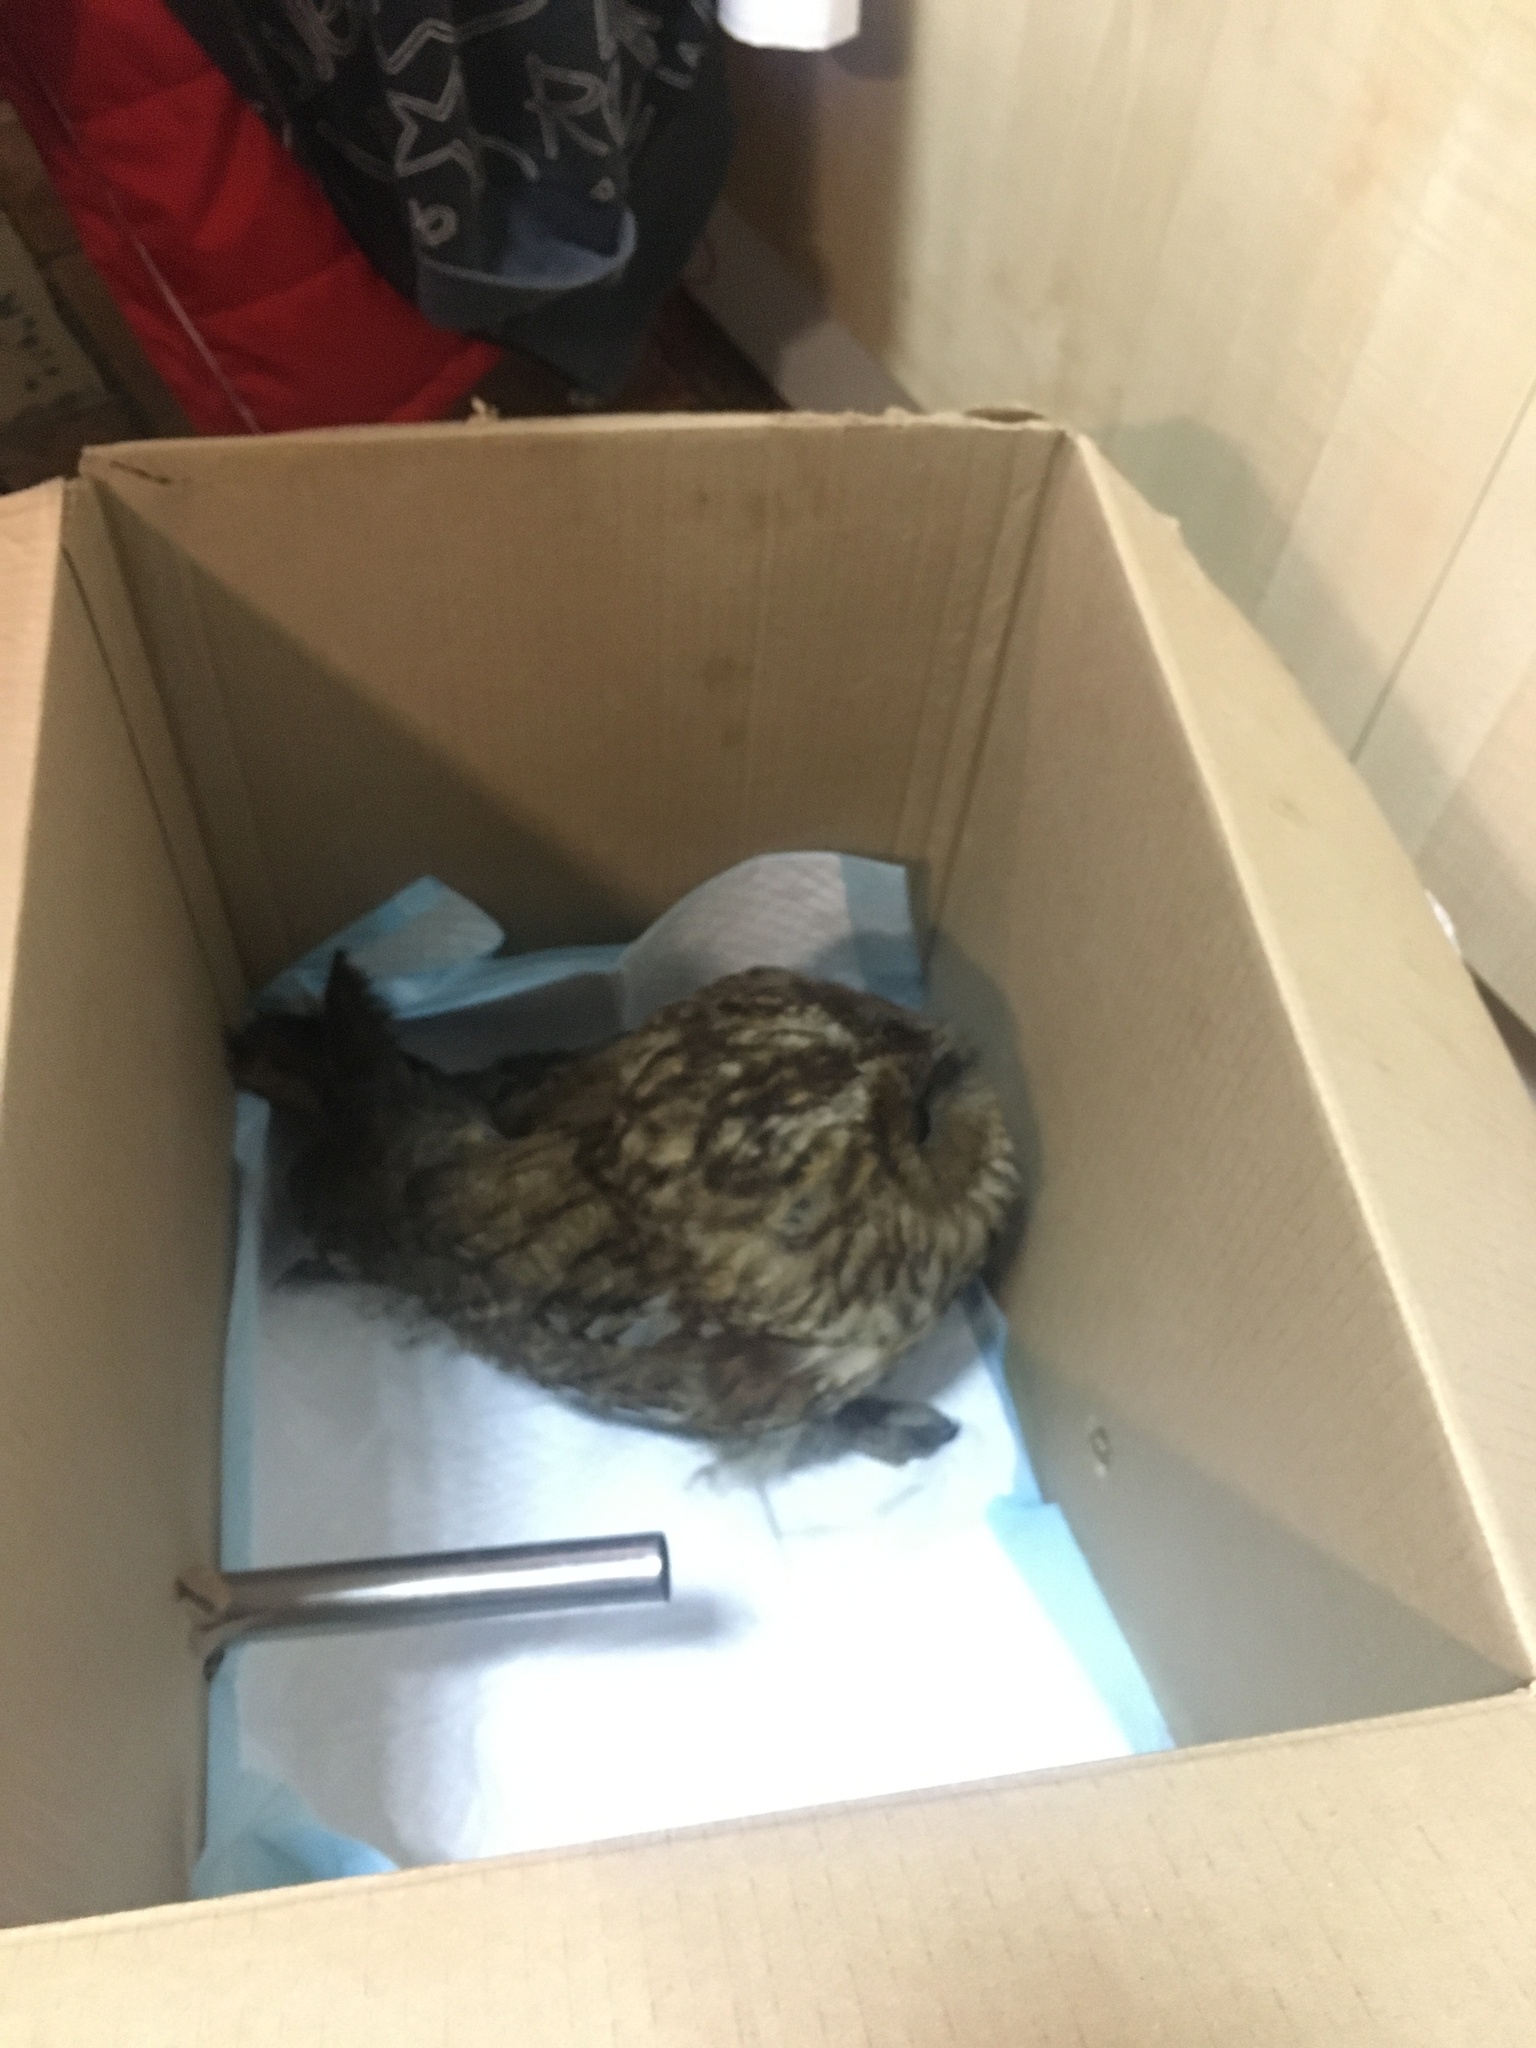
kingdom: Animalia
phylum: Chordata
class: Aves
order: Strigiformes
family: Strigidae
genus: Strix
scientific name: Strix aluco
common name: Tawny owl
